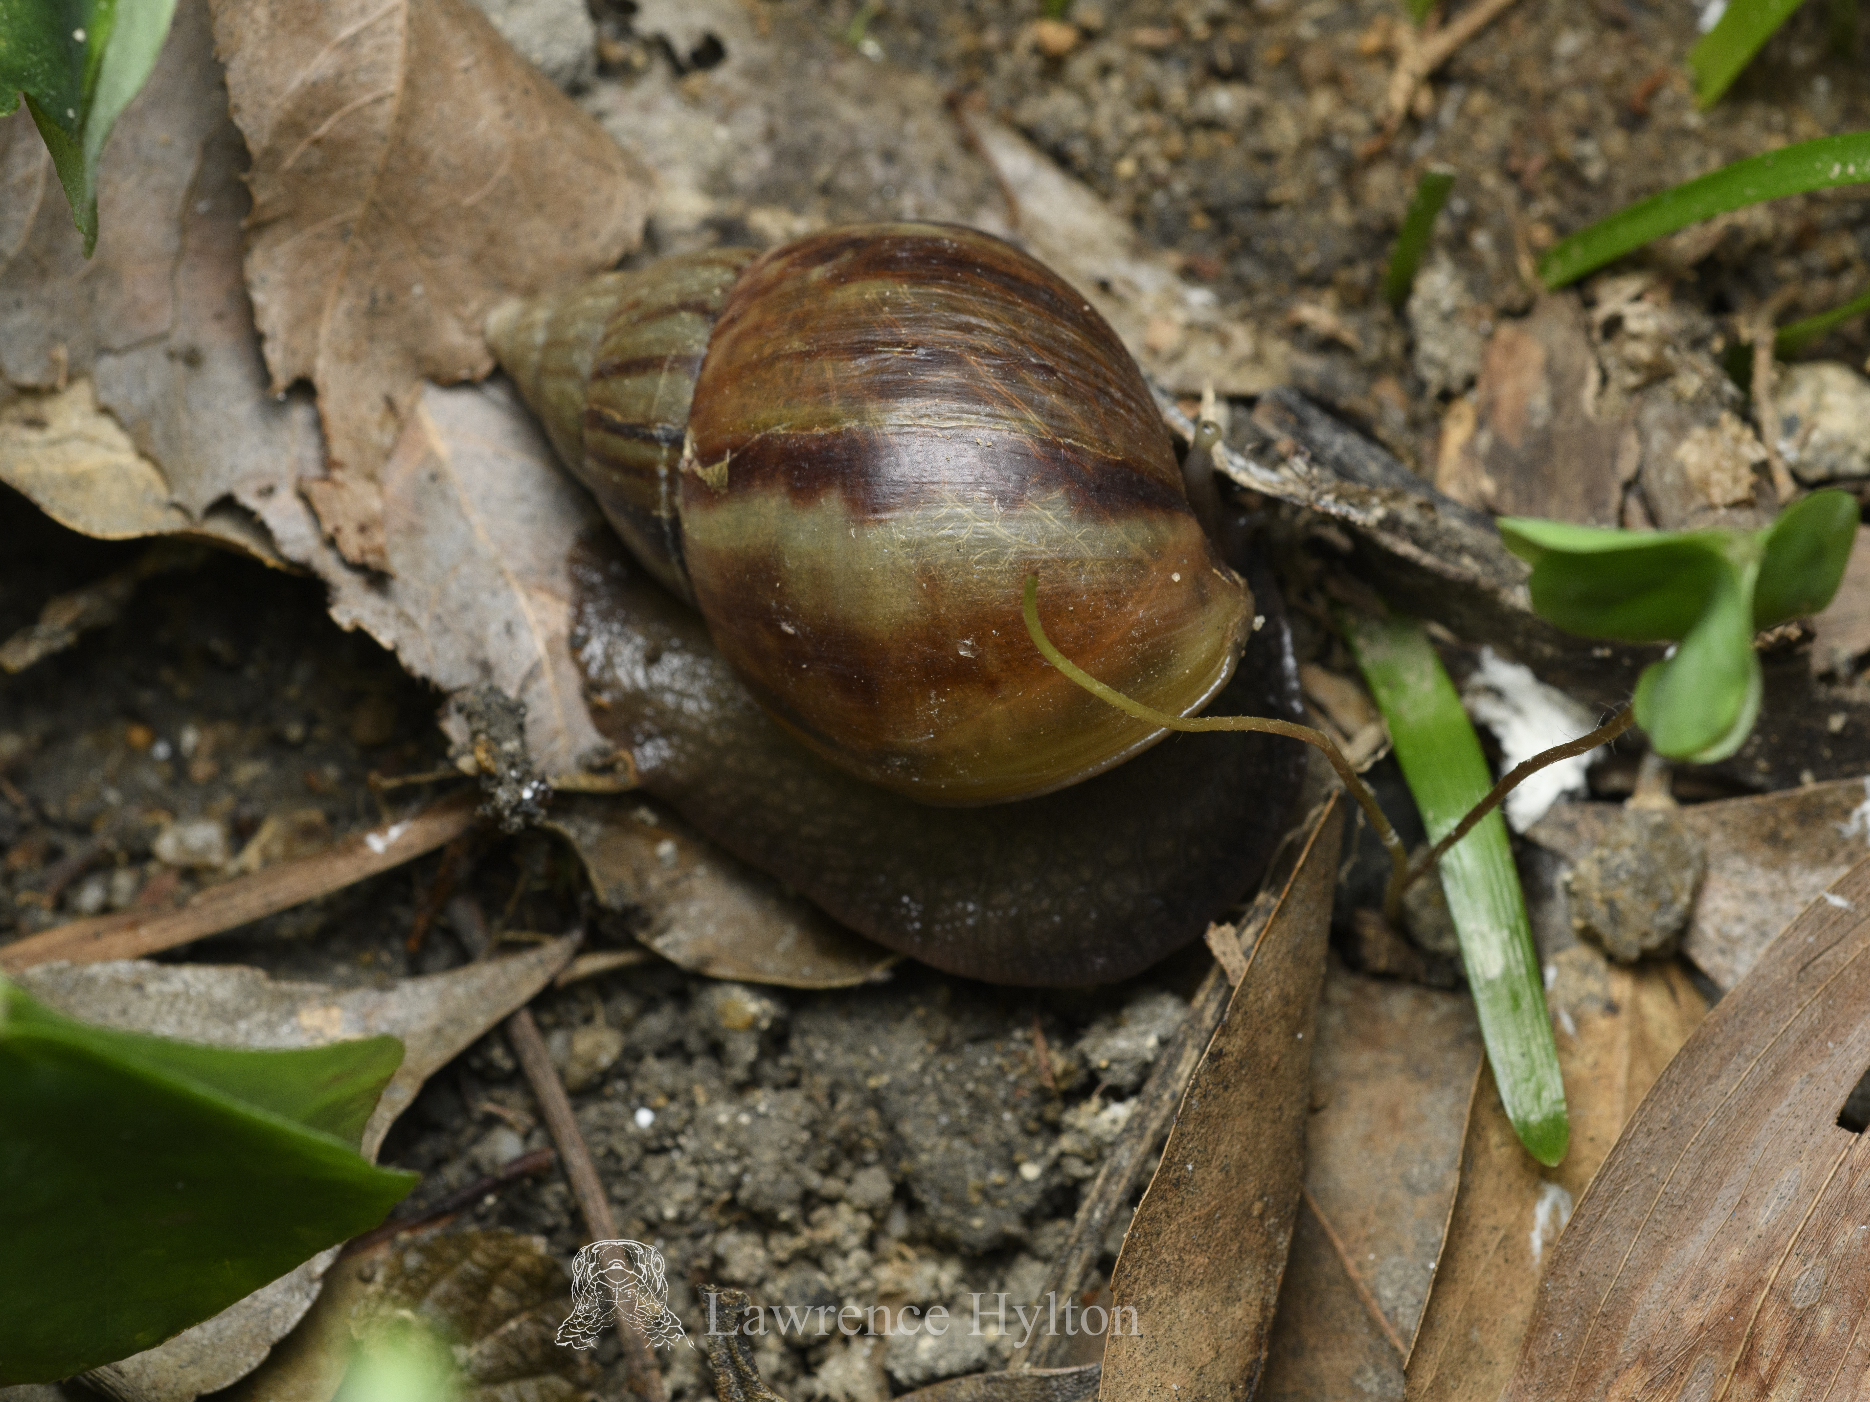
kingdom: Animalia
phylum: Mollusca
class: Gastropoda
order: Stylommatophora
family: Achatinidae
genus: Lissachatina
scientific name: Lissachatina fulica
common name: Giant african snail
